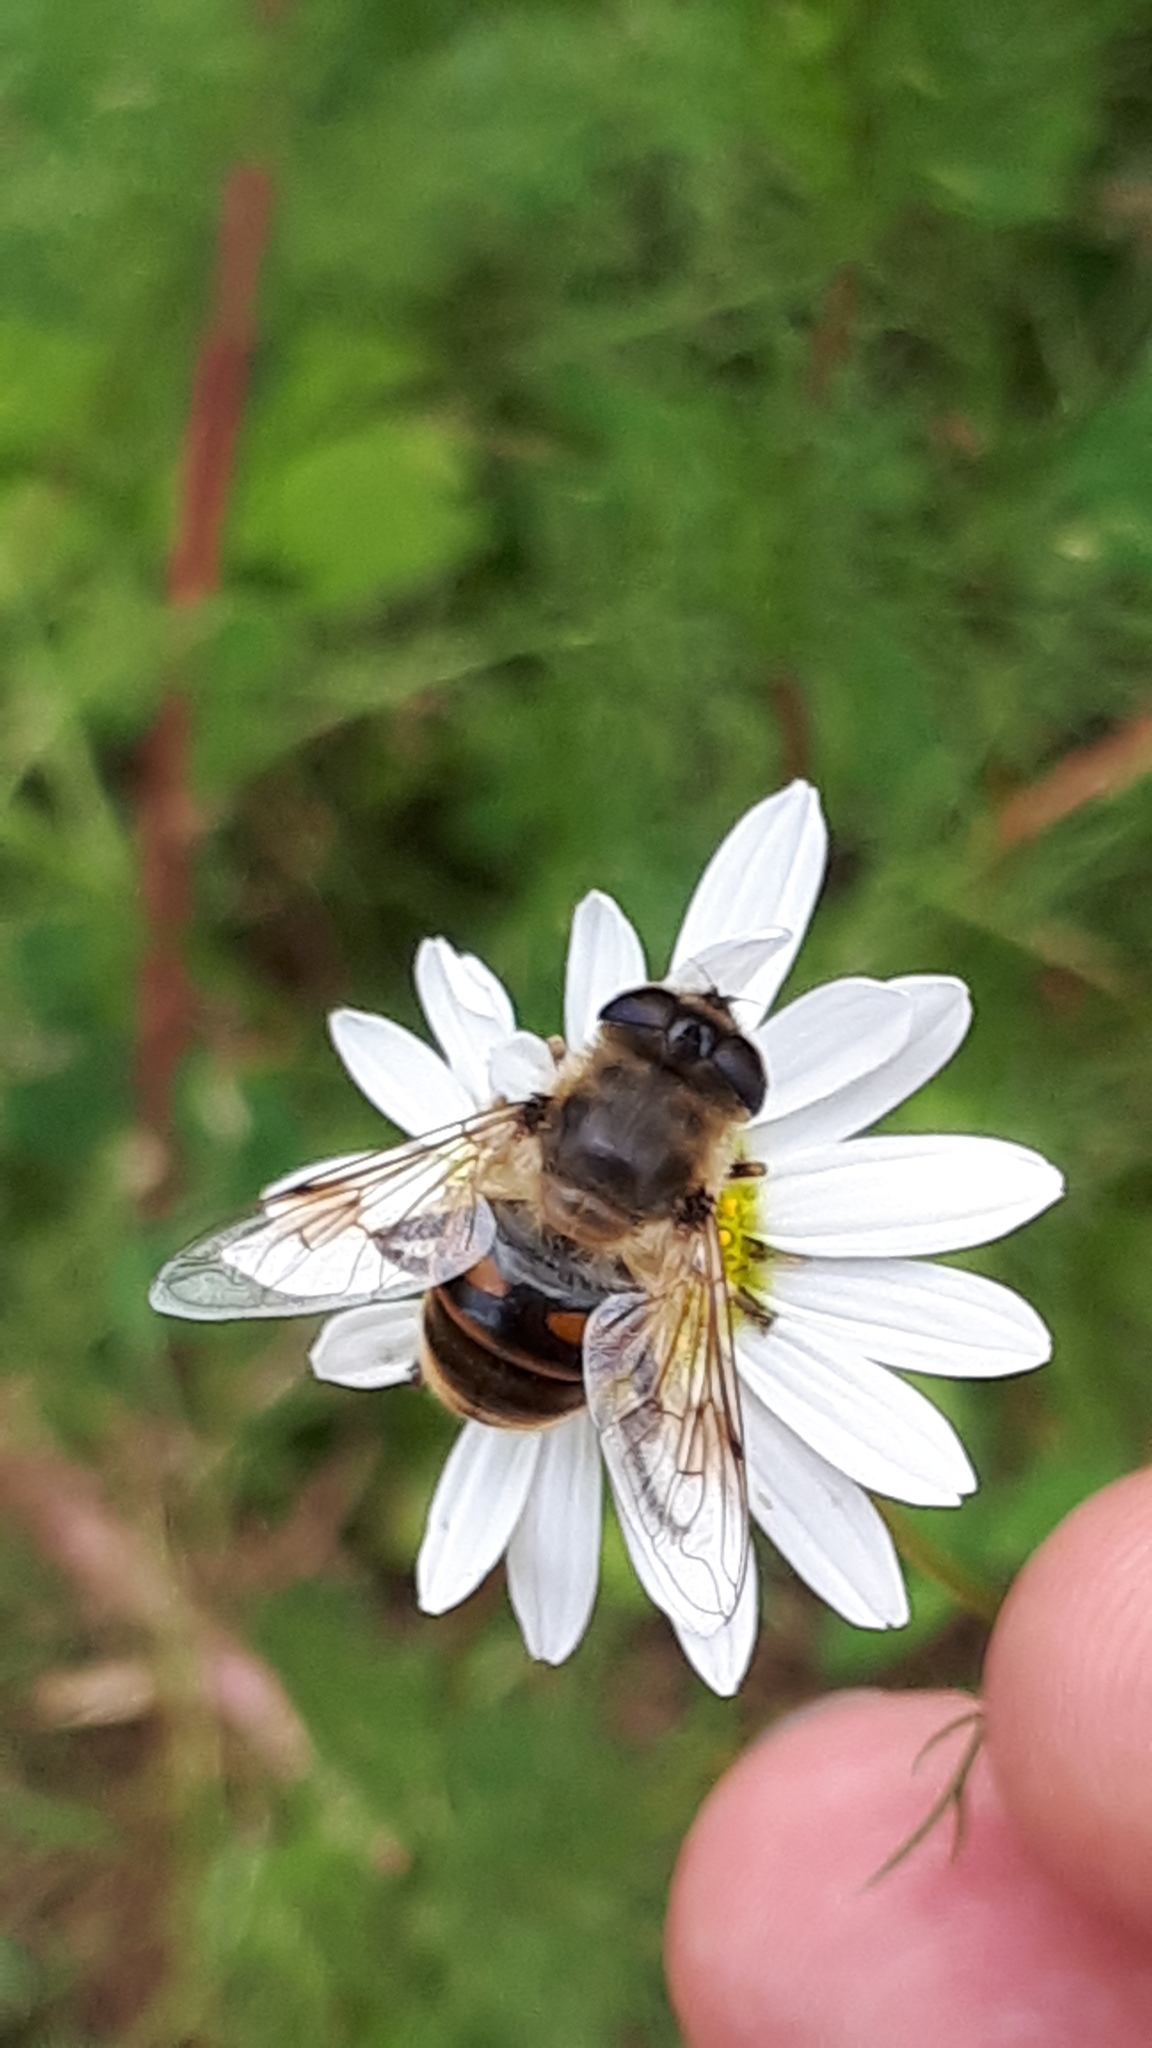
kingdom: Animalia
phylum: Arthropoda
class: Insecta
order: Diptera
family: Syrphidae
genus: Eristalis
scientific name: Eristalis tenax
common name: Drone fly
